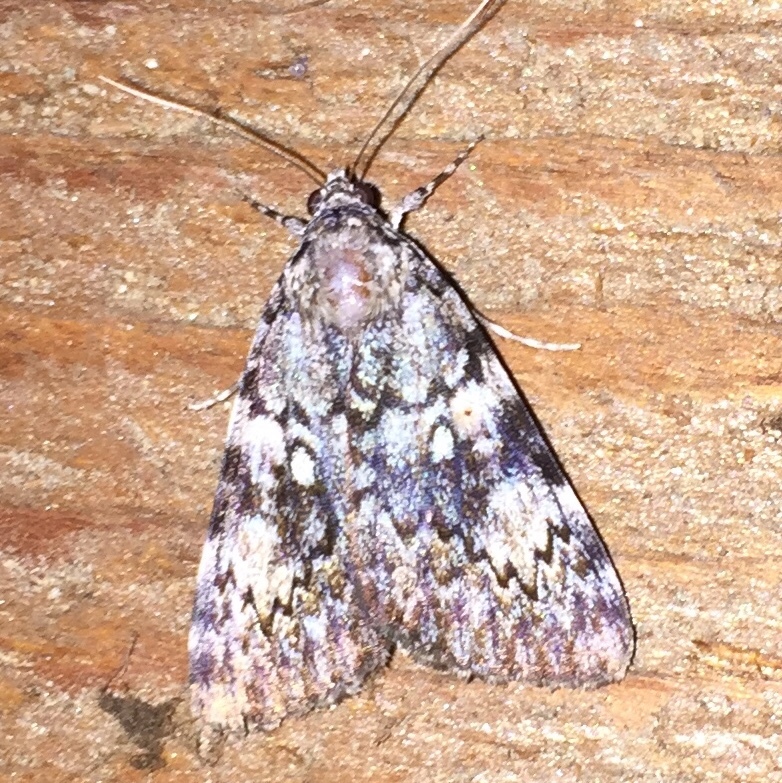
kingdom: Animalia
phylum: Arthropoda
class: Insecta
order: Lepidoptera
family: Erebidae
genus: Catocala
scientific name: Catocala lineella
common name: Little lined underwing
